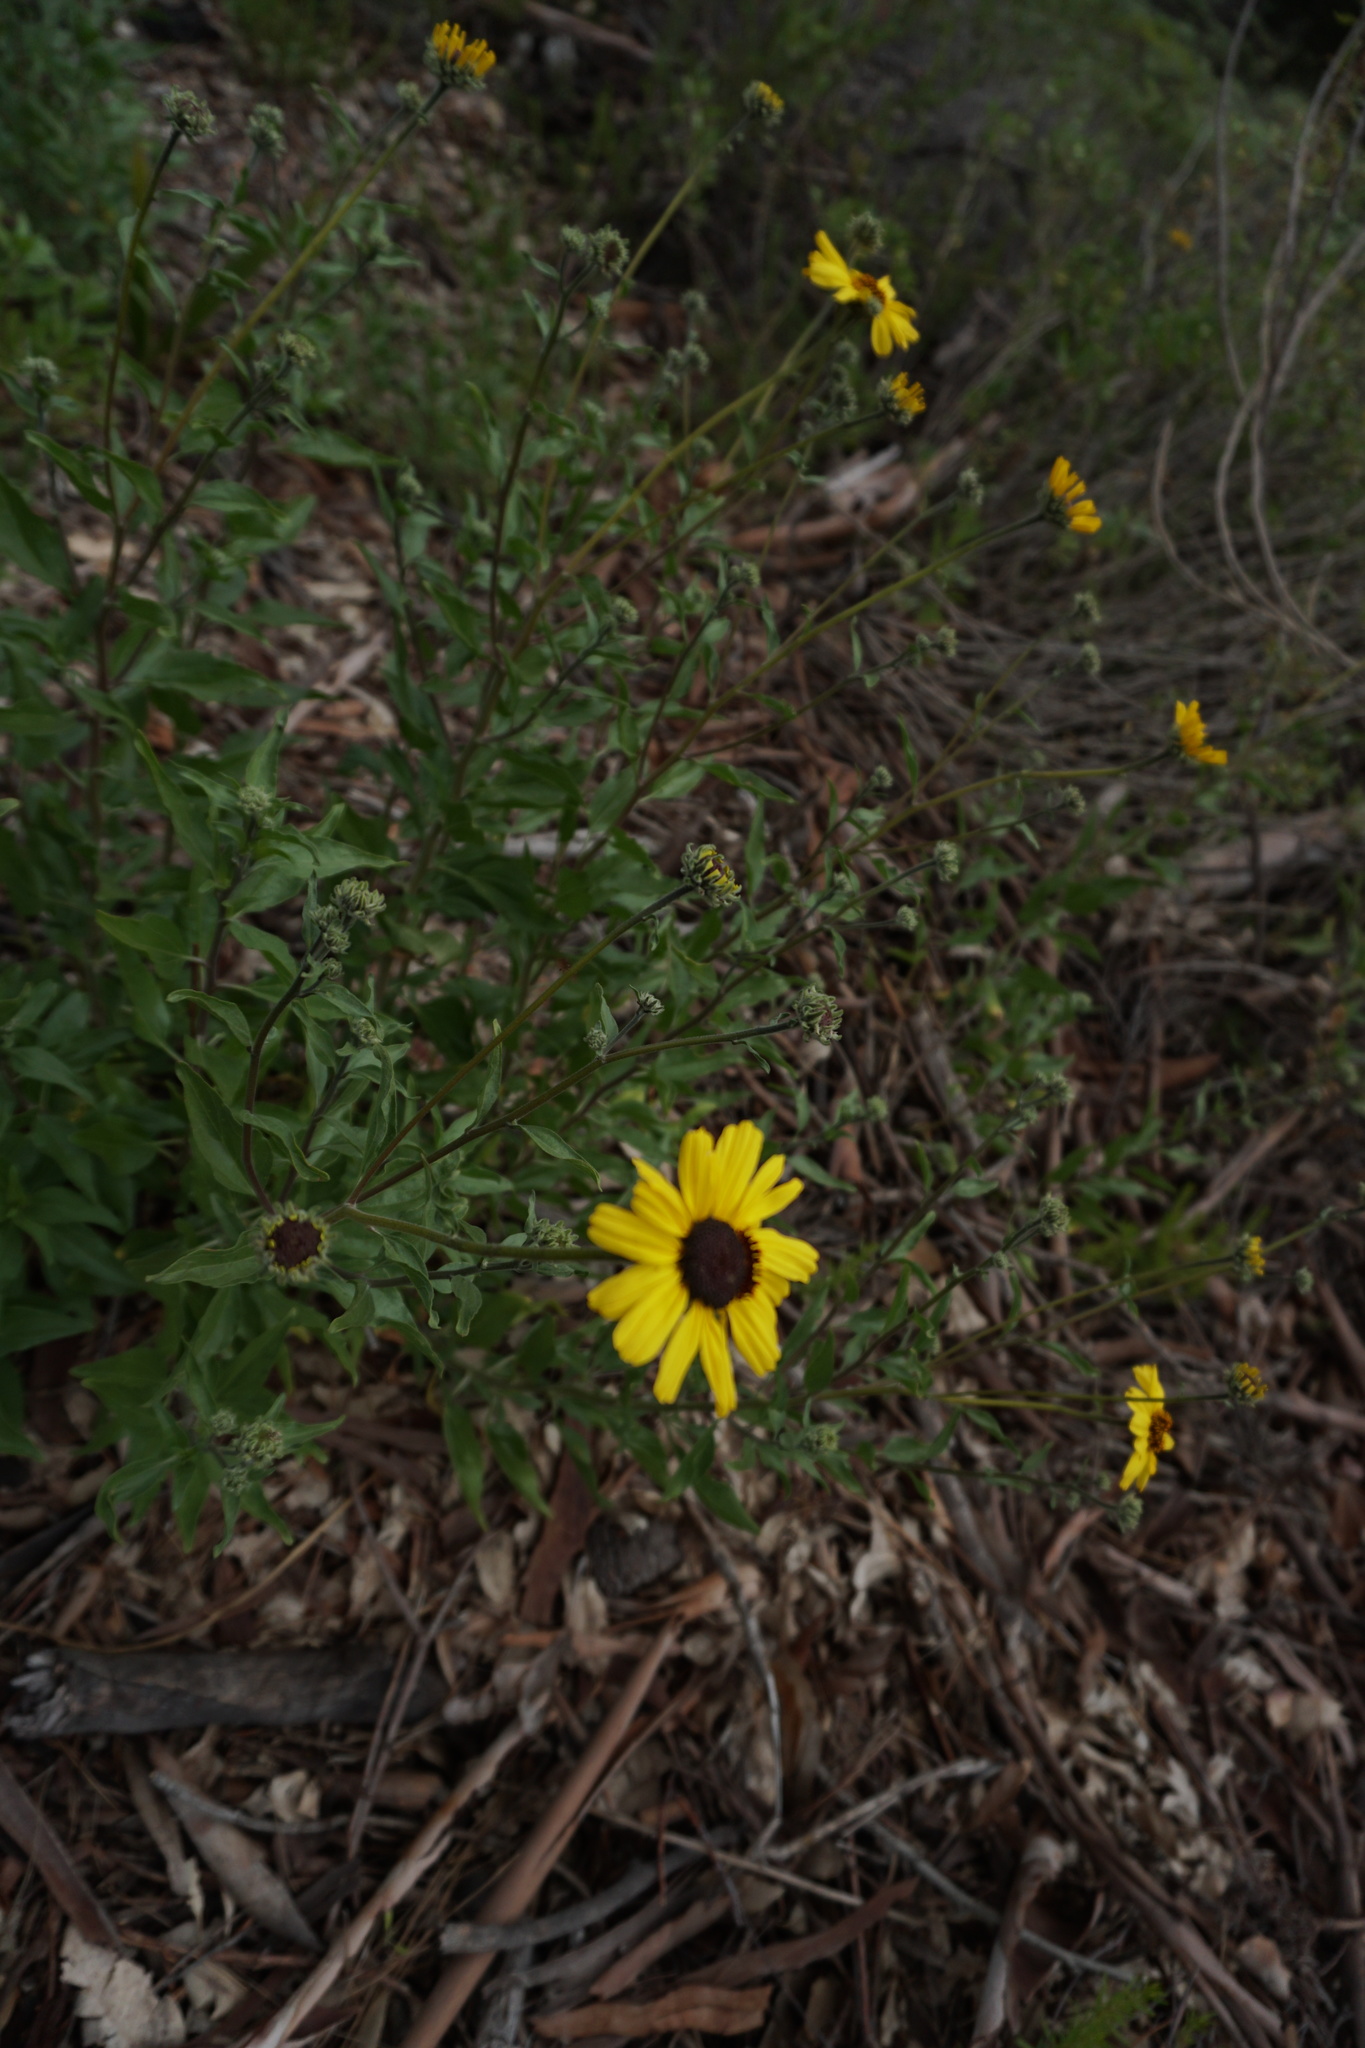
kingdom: Plantae
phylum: Tracheophyta
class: Magnoliopsida
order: Asterales
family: Asteraceae
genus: Encelia
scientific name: Encelia californica
